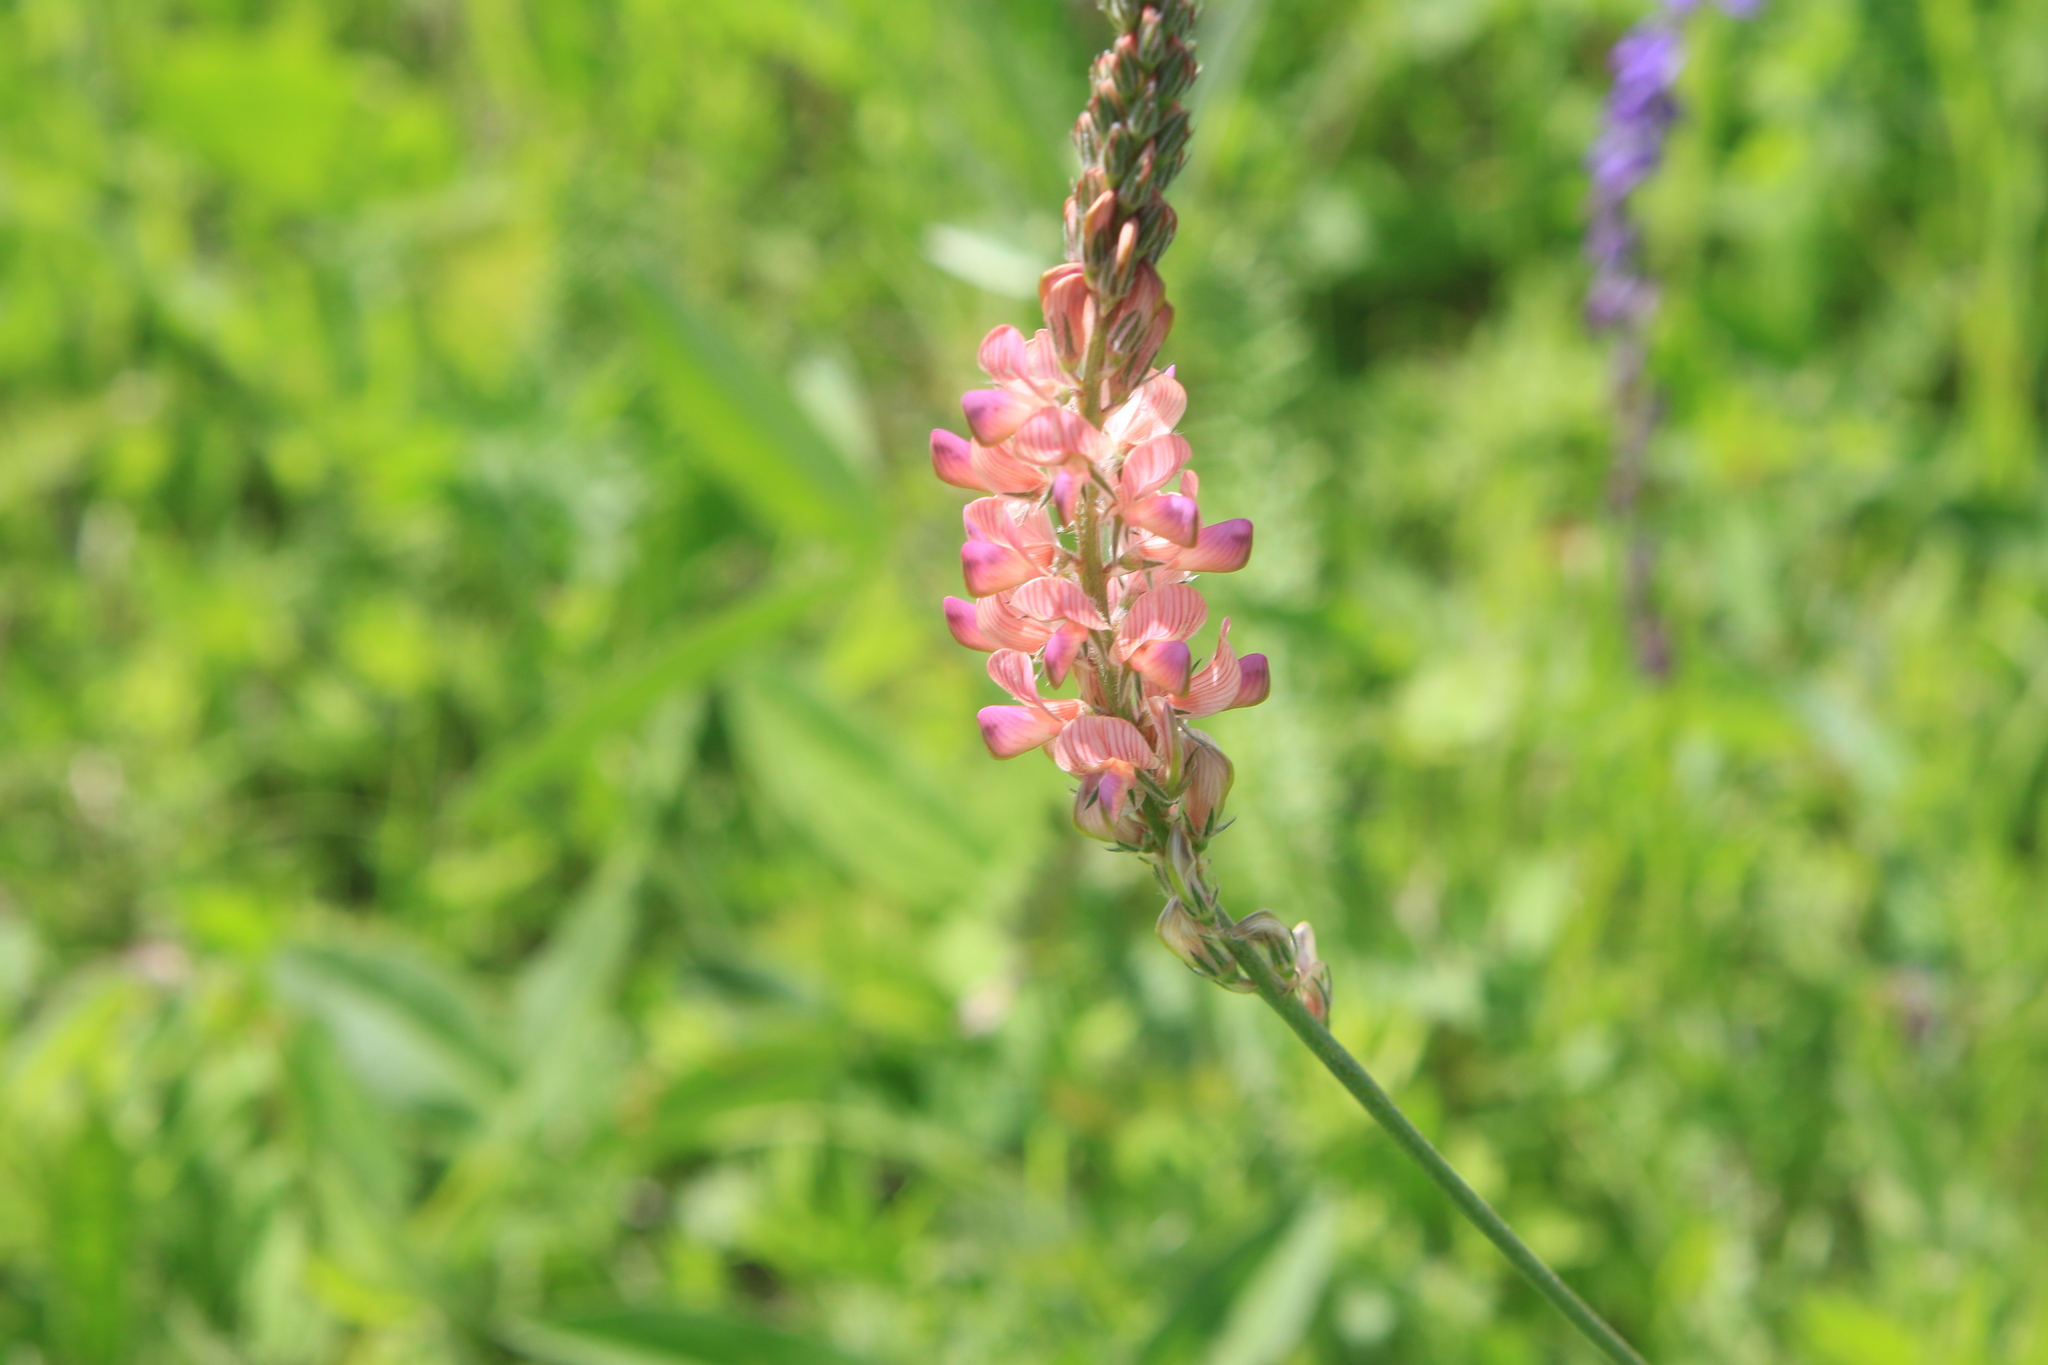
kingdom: Plantae
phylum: Tracheophyta
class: Magnoliopsida
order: Fabales
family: Fabaceae
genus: Onobrychis
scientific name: Onobrychis viciifolia
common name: Sainfoin
